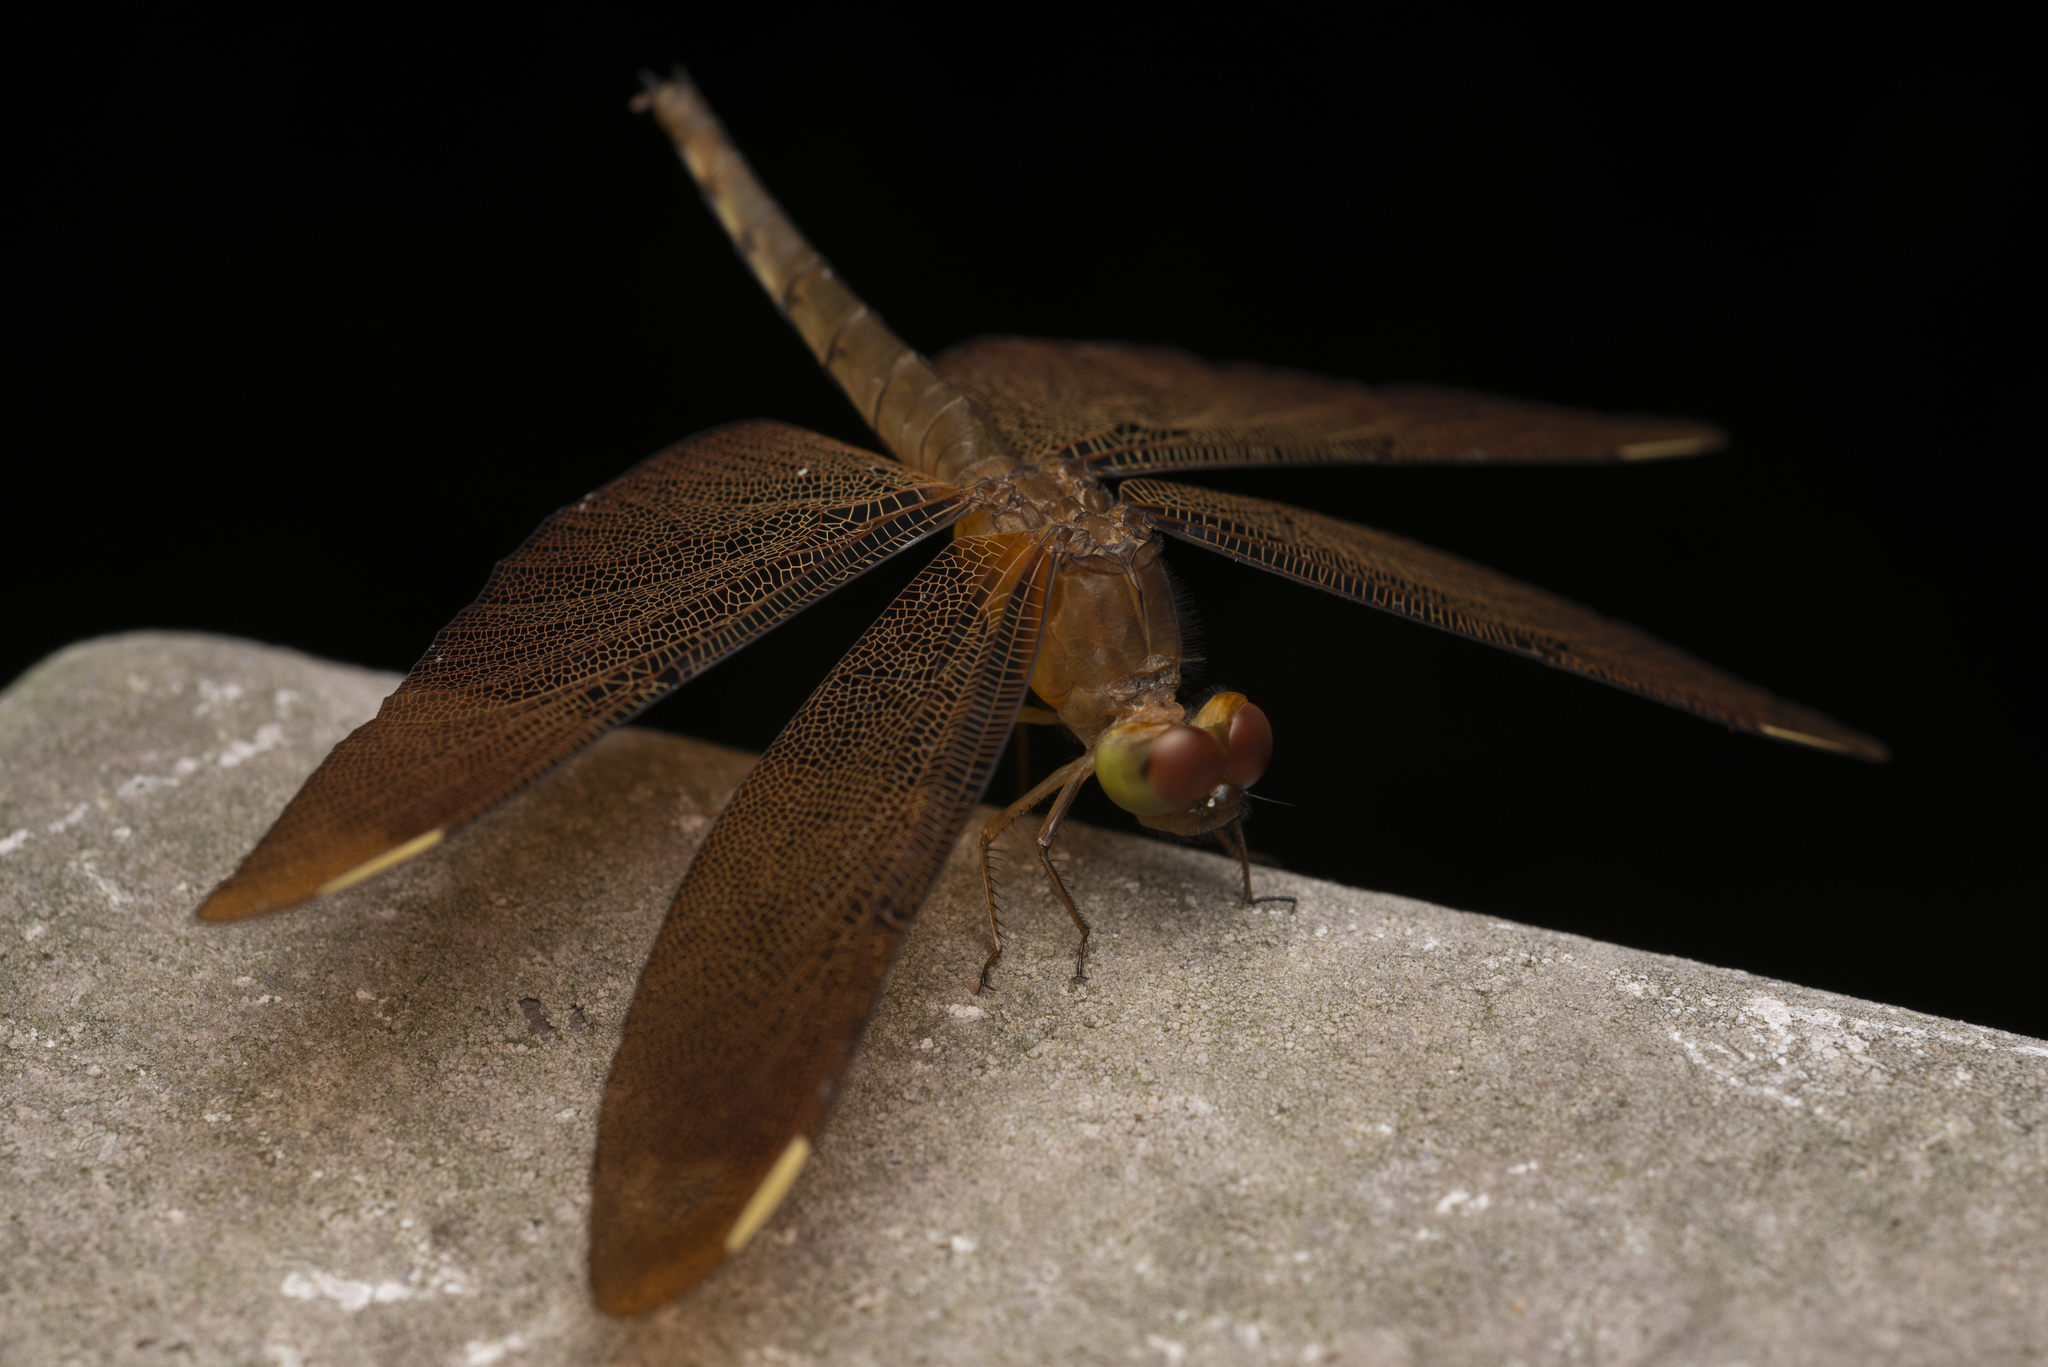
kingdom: Animalia
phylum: Arthropoda
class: Insecta
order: Odonata
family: Libellulidae
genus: Neurothemis
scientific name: Neurothemis fulvia
